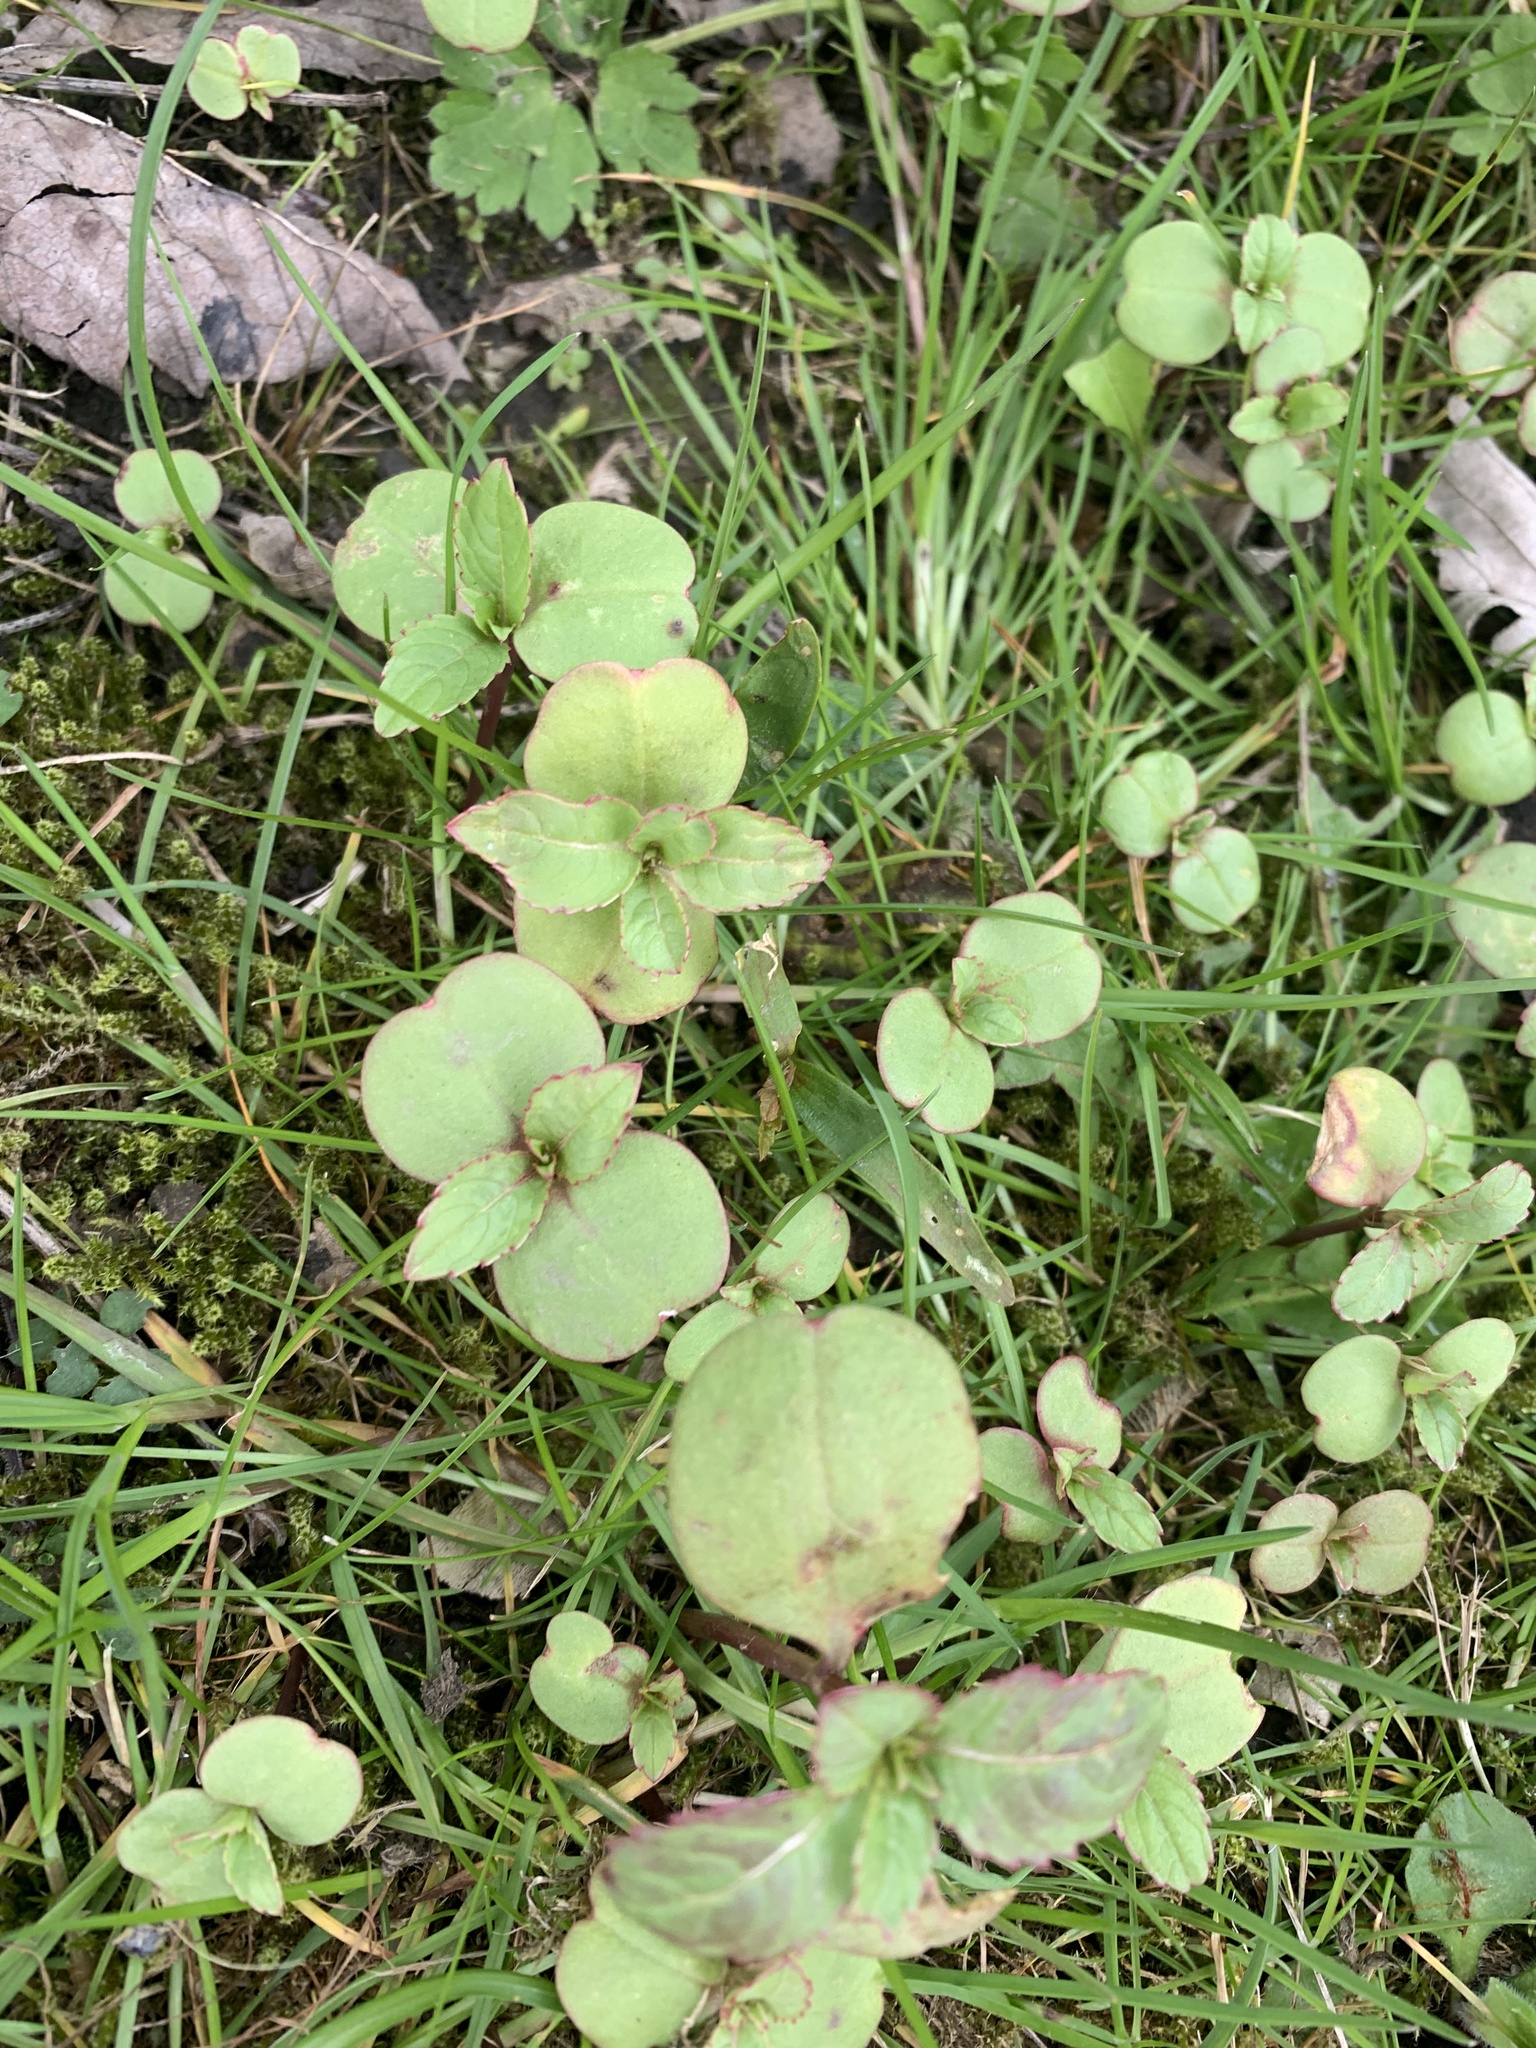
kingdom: Plantae
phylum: Tracheophyta
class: Magnoliopsida
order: Ericales
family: Balsaminaceae
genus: Impatiens
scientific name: Impatiens glandulifera
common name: Himalayan balsam
